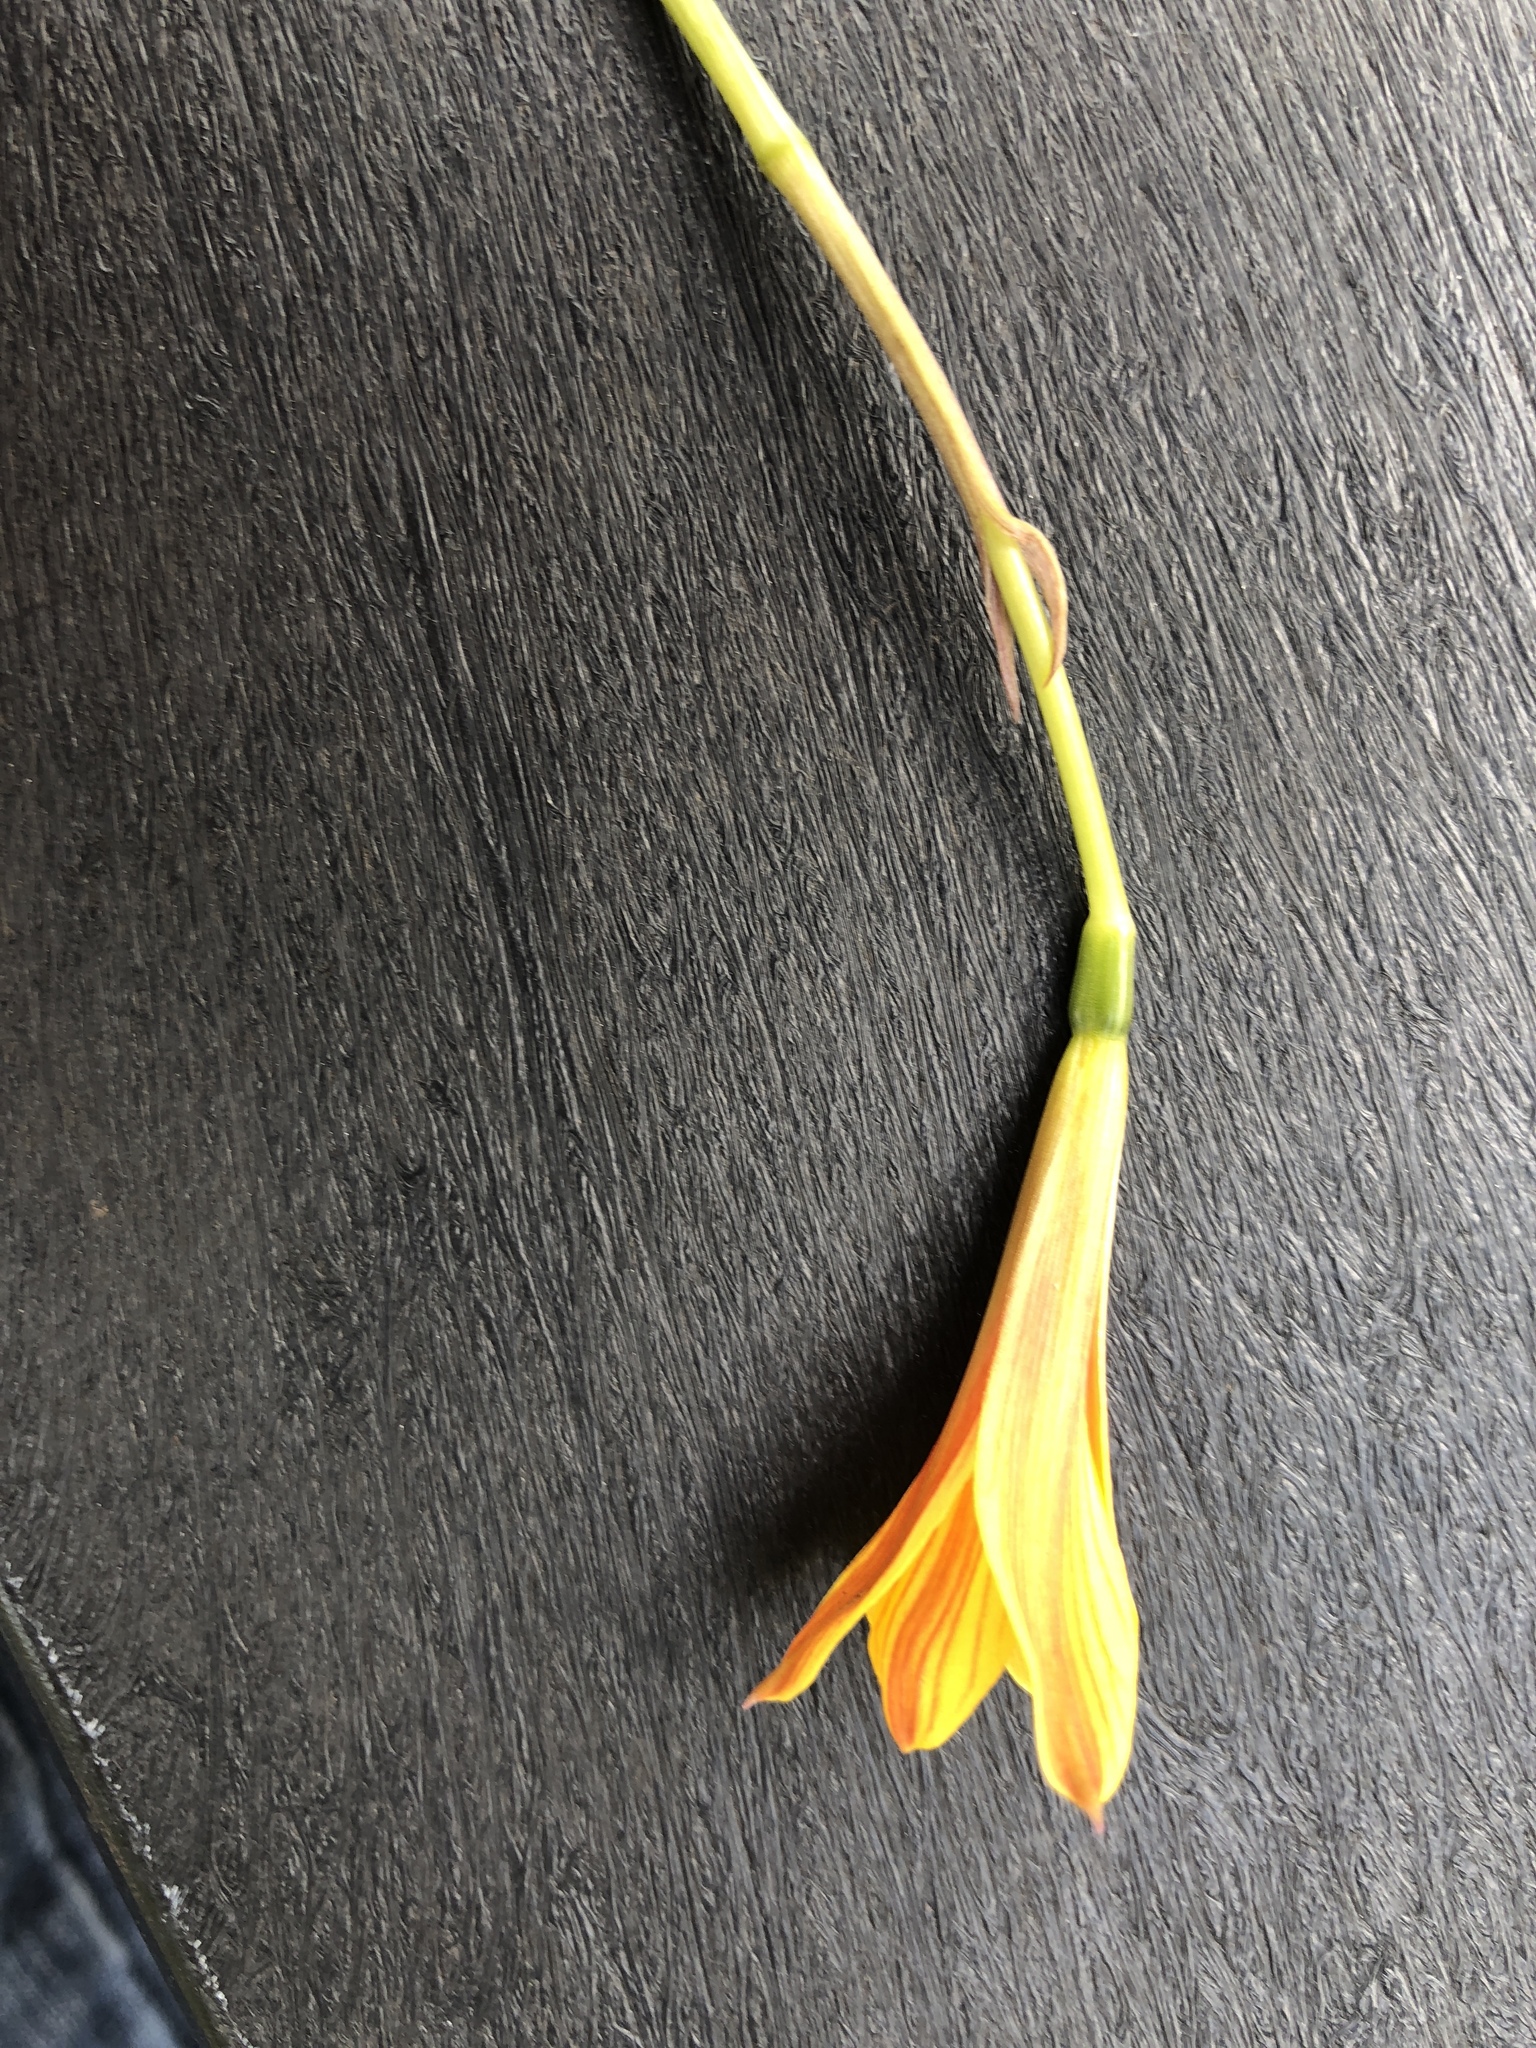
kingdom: Plantae
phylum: Tracheophyta
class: Liliopsida
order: Asparagales
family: Amaryllidaceae
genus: Zephyranthes
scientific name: Zephyranthes tubispatha
